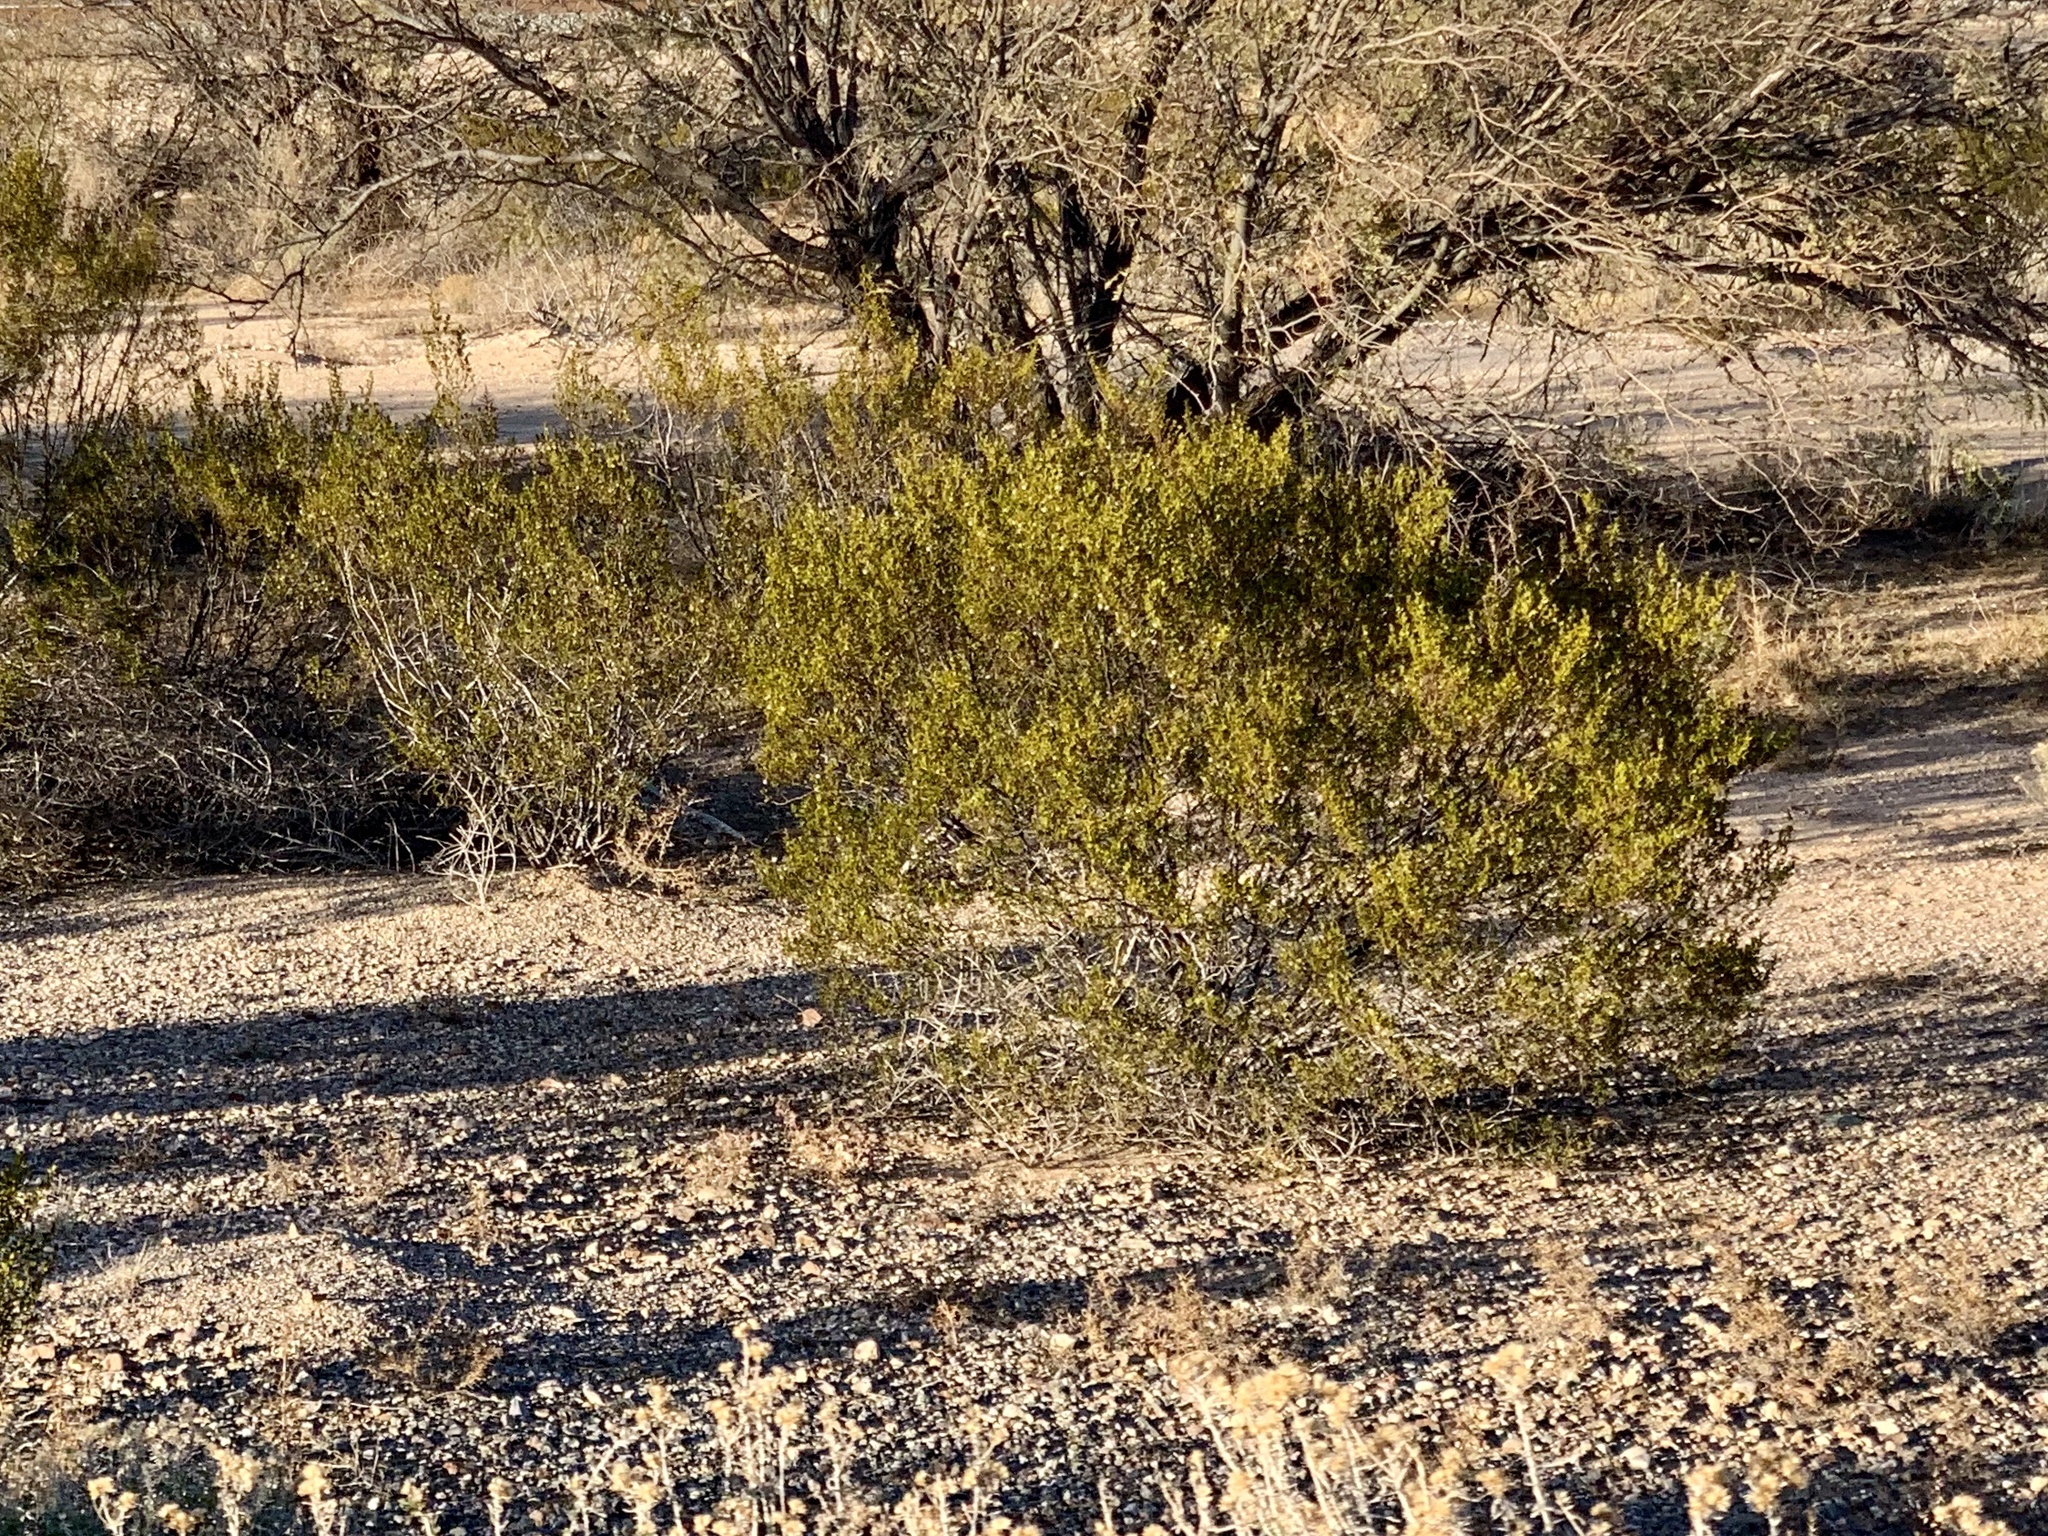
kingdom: Plantae
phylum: Tracheophyta
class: Magnoliopsida
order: Zygophyllales
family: Zygophyllaceae
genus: Larrea
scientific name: Larrea tridentata
